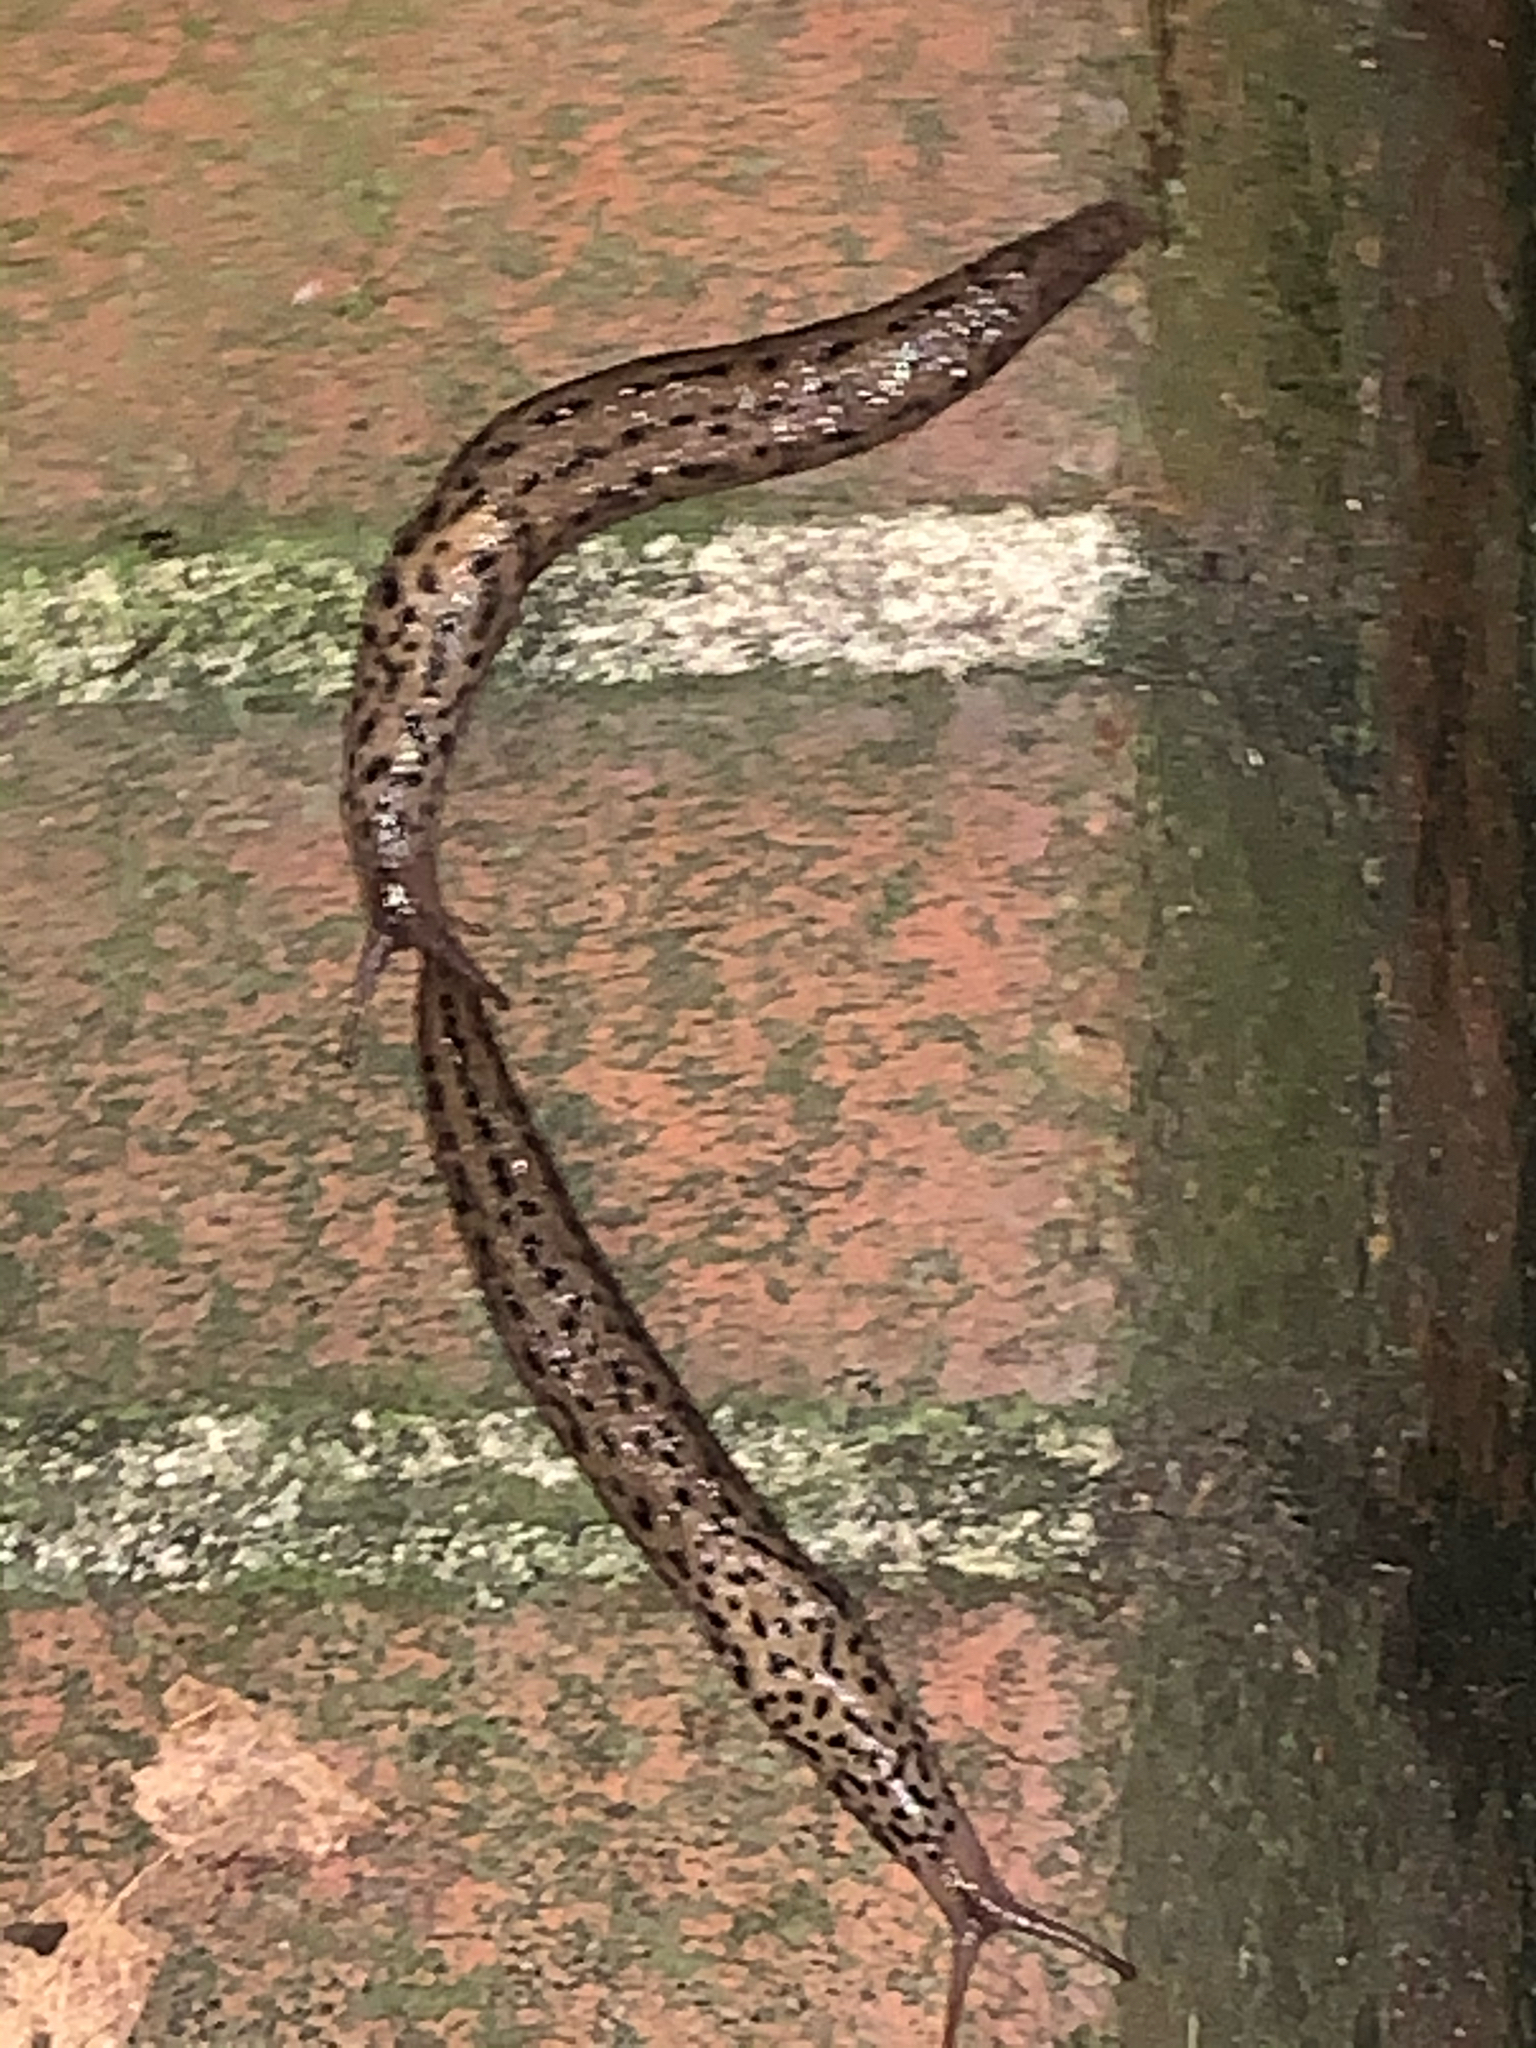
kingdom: Animalia
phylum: Mollusca
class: Gastropoda
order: Stylommatophora
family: Limacidae
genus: Limax
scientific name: Limax maximus
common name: Great grey slug
